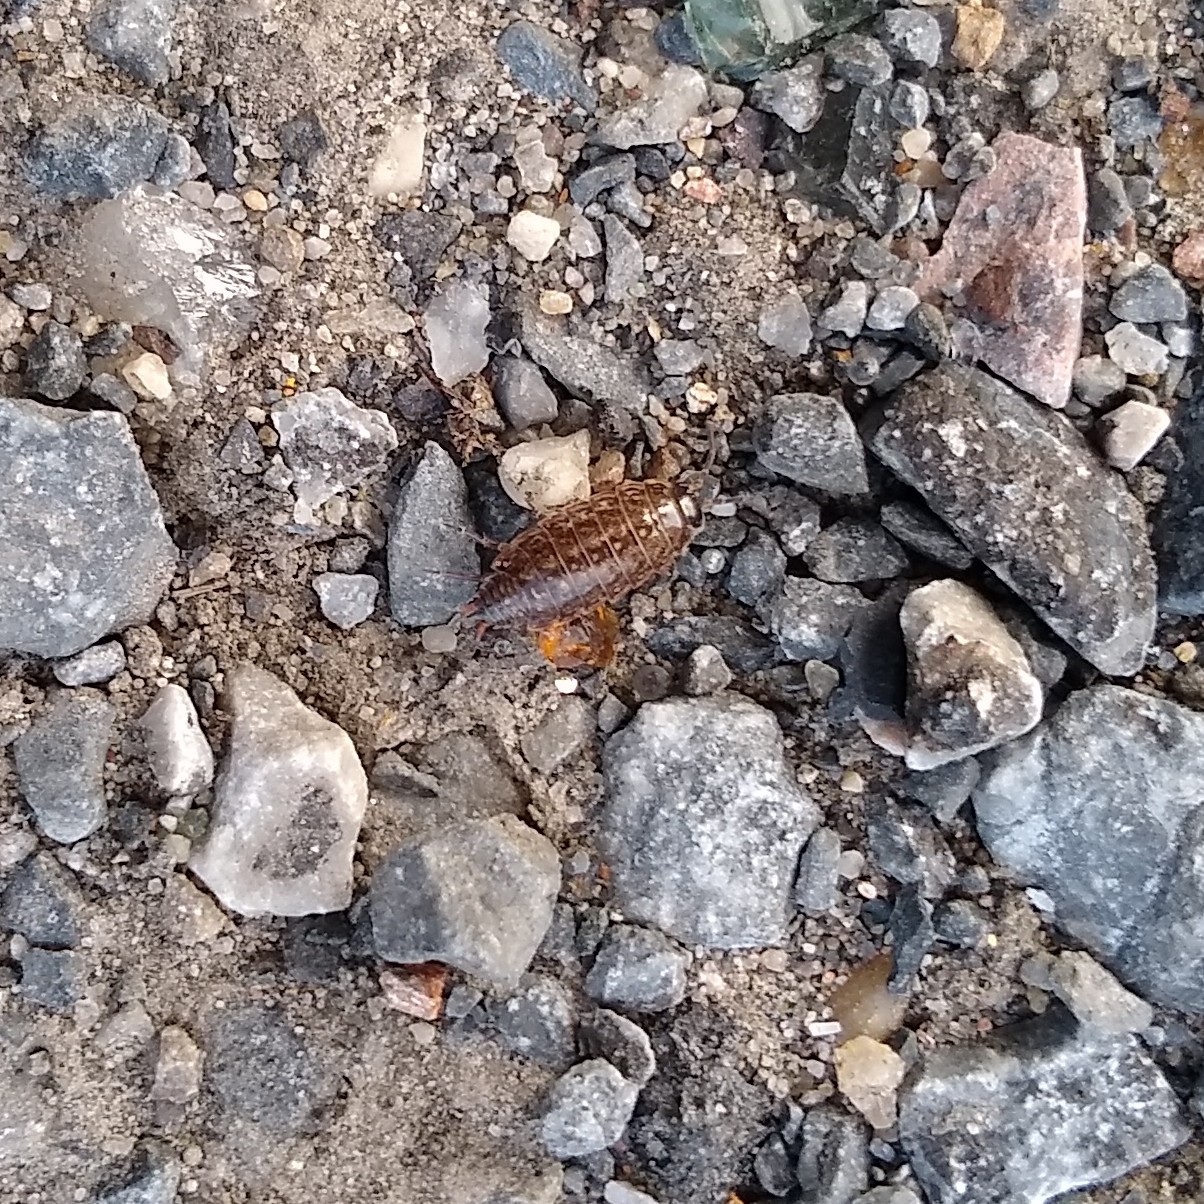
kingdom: Animalia
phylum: Arthropoda
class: Malacostraca
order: Isopoda
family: Philosciidae
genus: Philoscia
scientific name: Philoscia muscorum
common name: Common striped woodlouse
